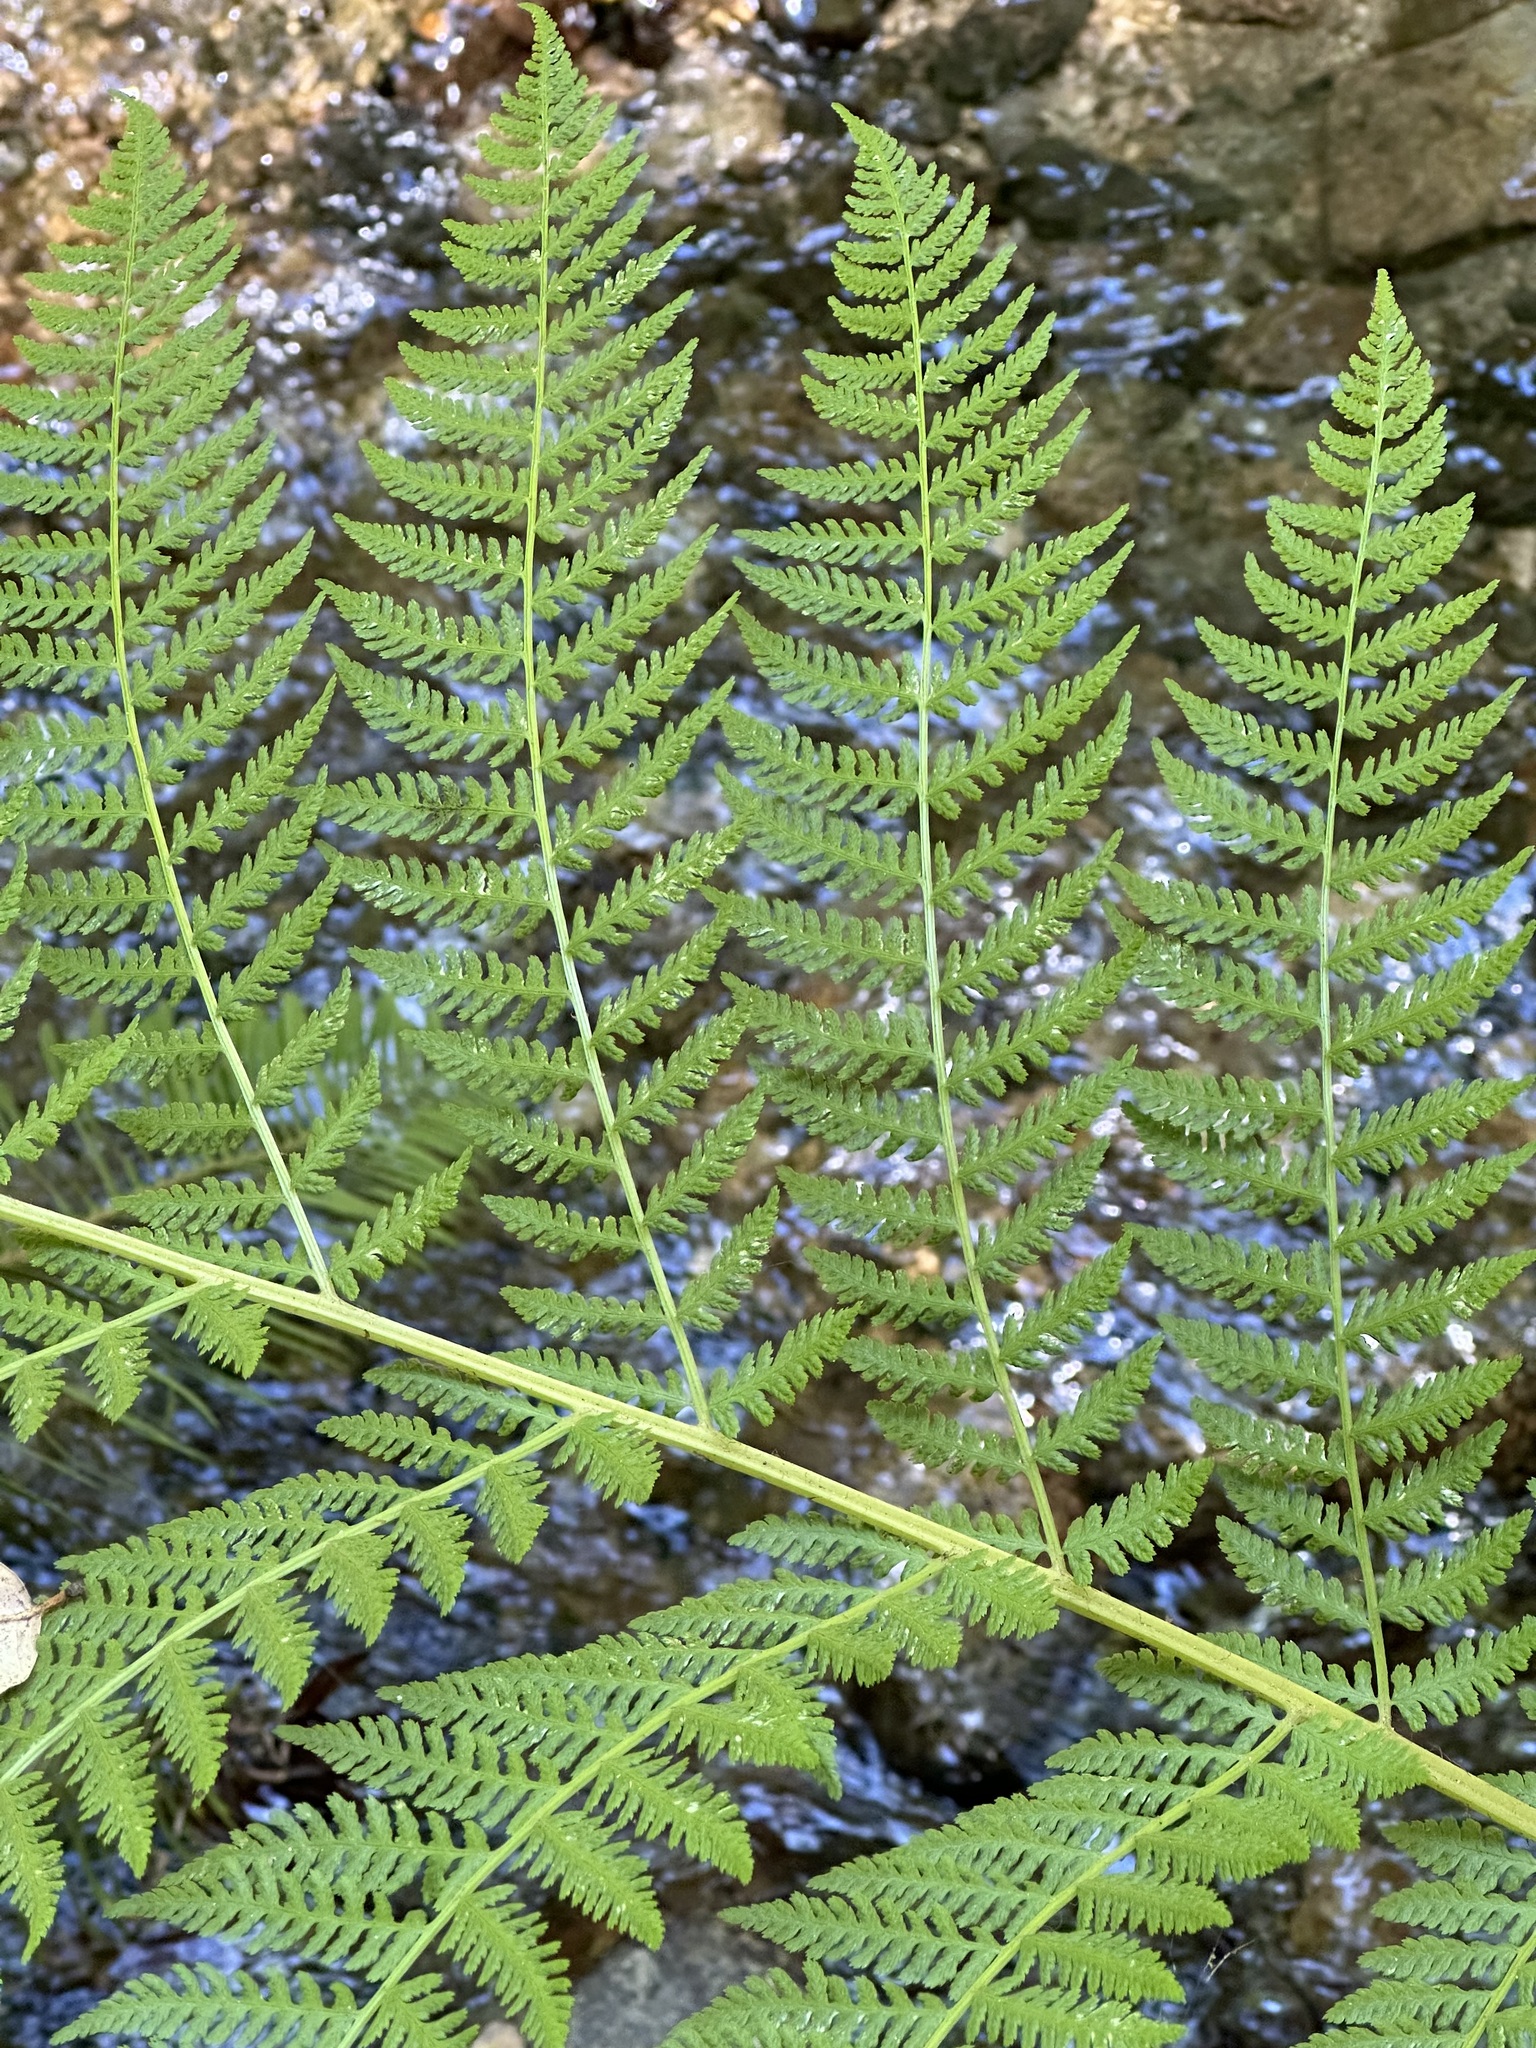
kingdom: Plantae
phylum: Tracheophyta
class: Polypodiopsida
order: Polypodiales
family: Athyriaceae
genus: Athyrium
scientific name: Athyrium filix-femina
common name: Lady fern
